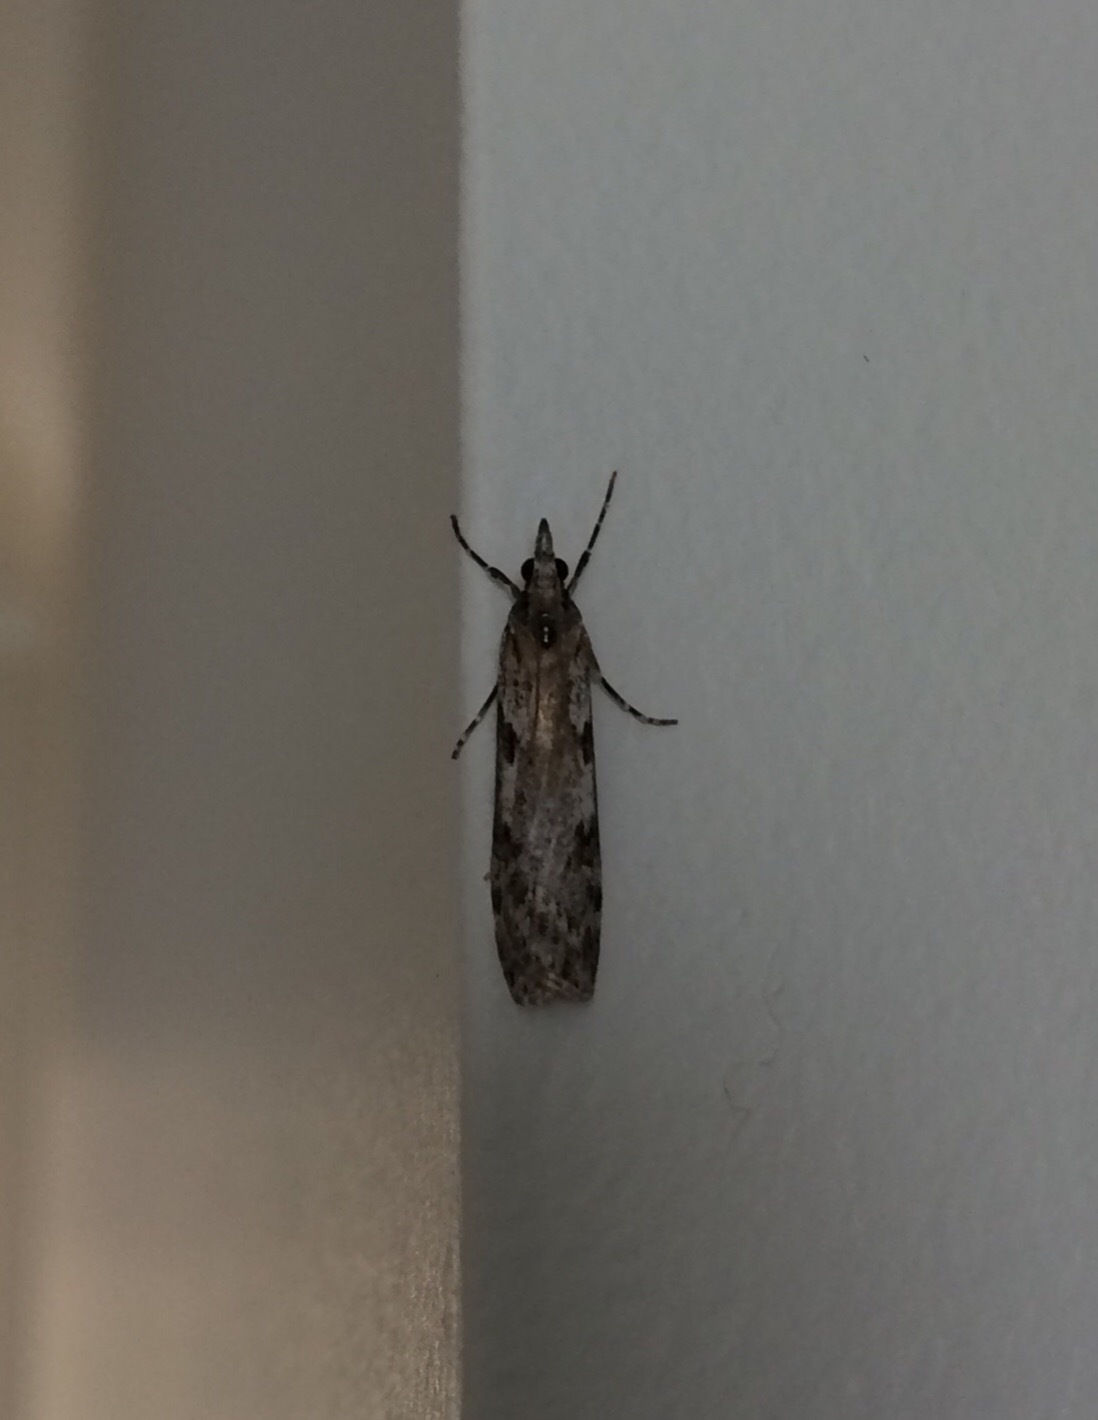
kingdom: Animalia
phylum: Arthropoda
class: Insecta
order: Lepidoptera
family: Crambidae
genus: Scoparia
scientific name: Scoparia halopis
